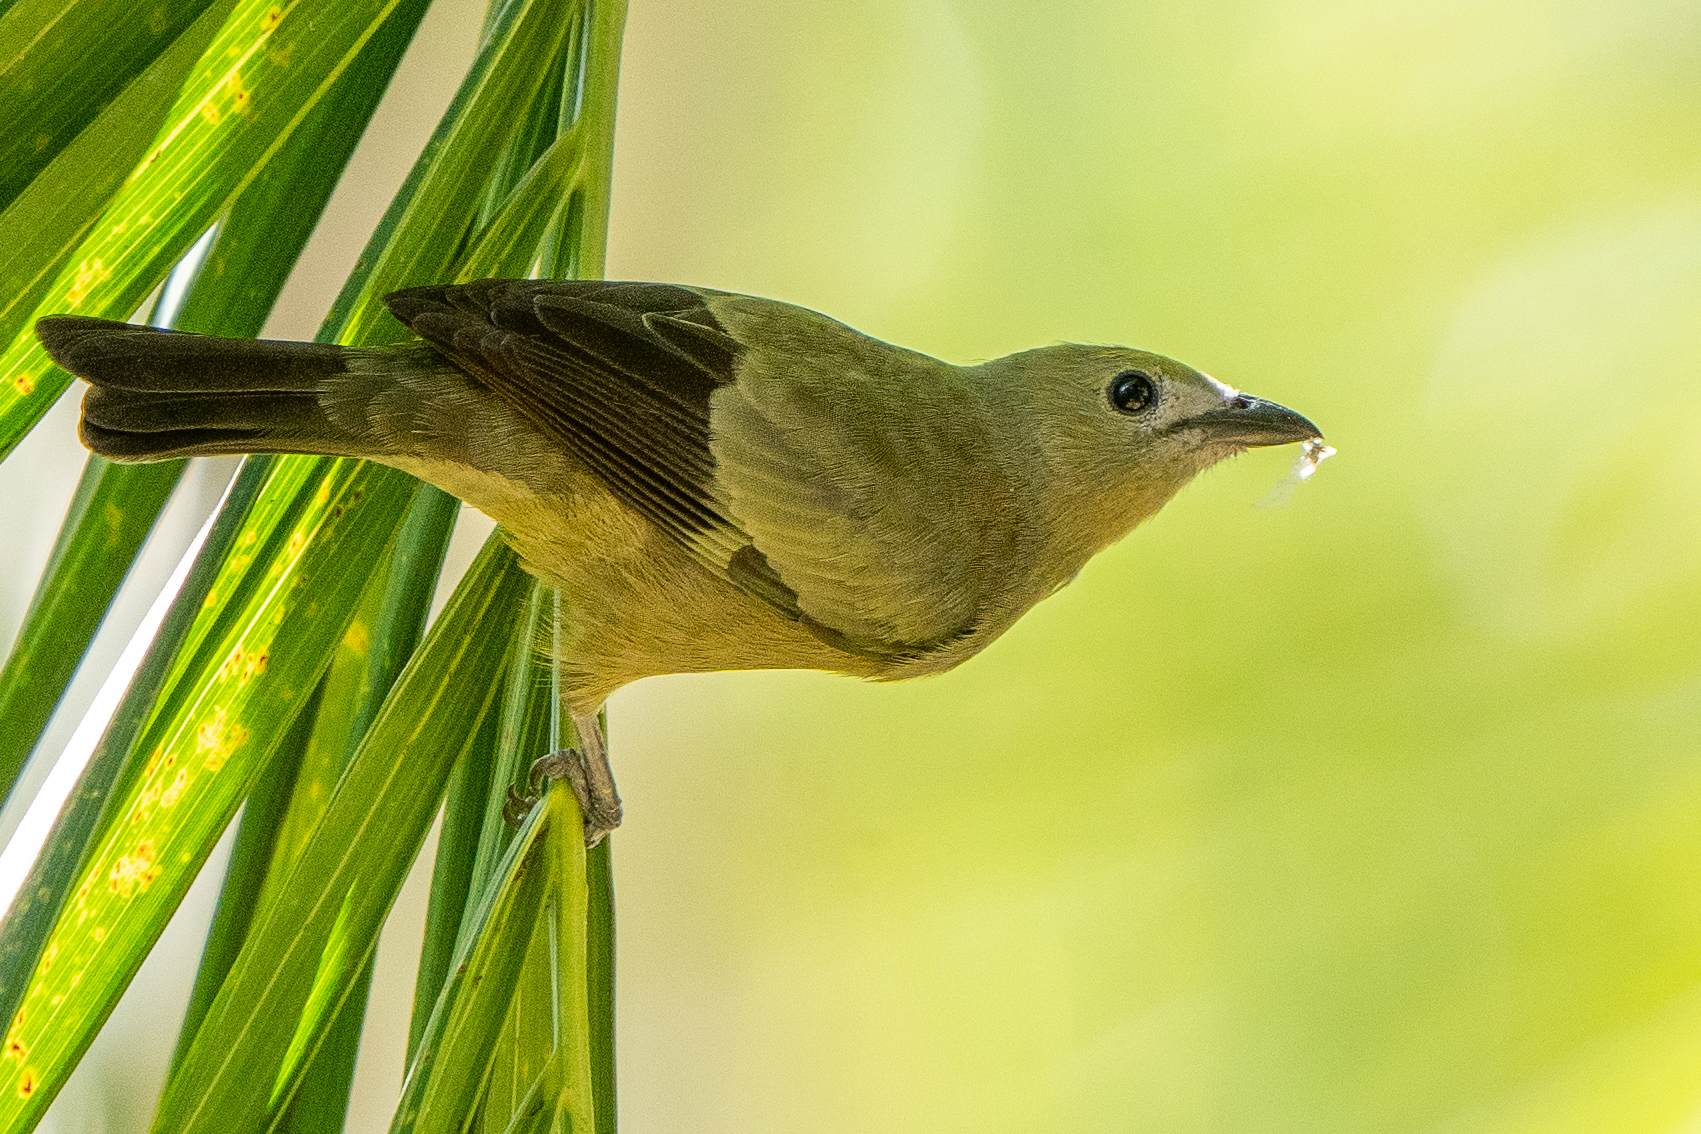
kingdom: Animalia
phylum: Chordata
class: Aves
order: Passeriformes
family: Thraupidae
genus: Thraupis
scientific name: Thraupis palmarum
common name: Palm tanager
